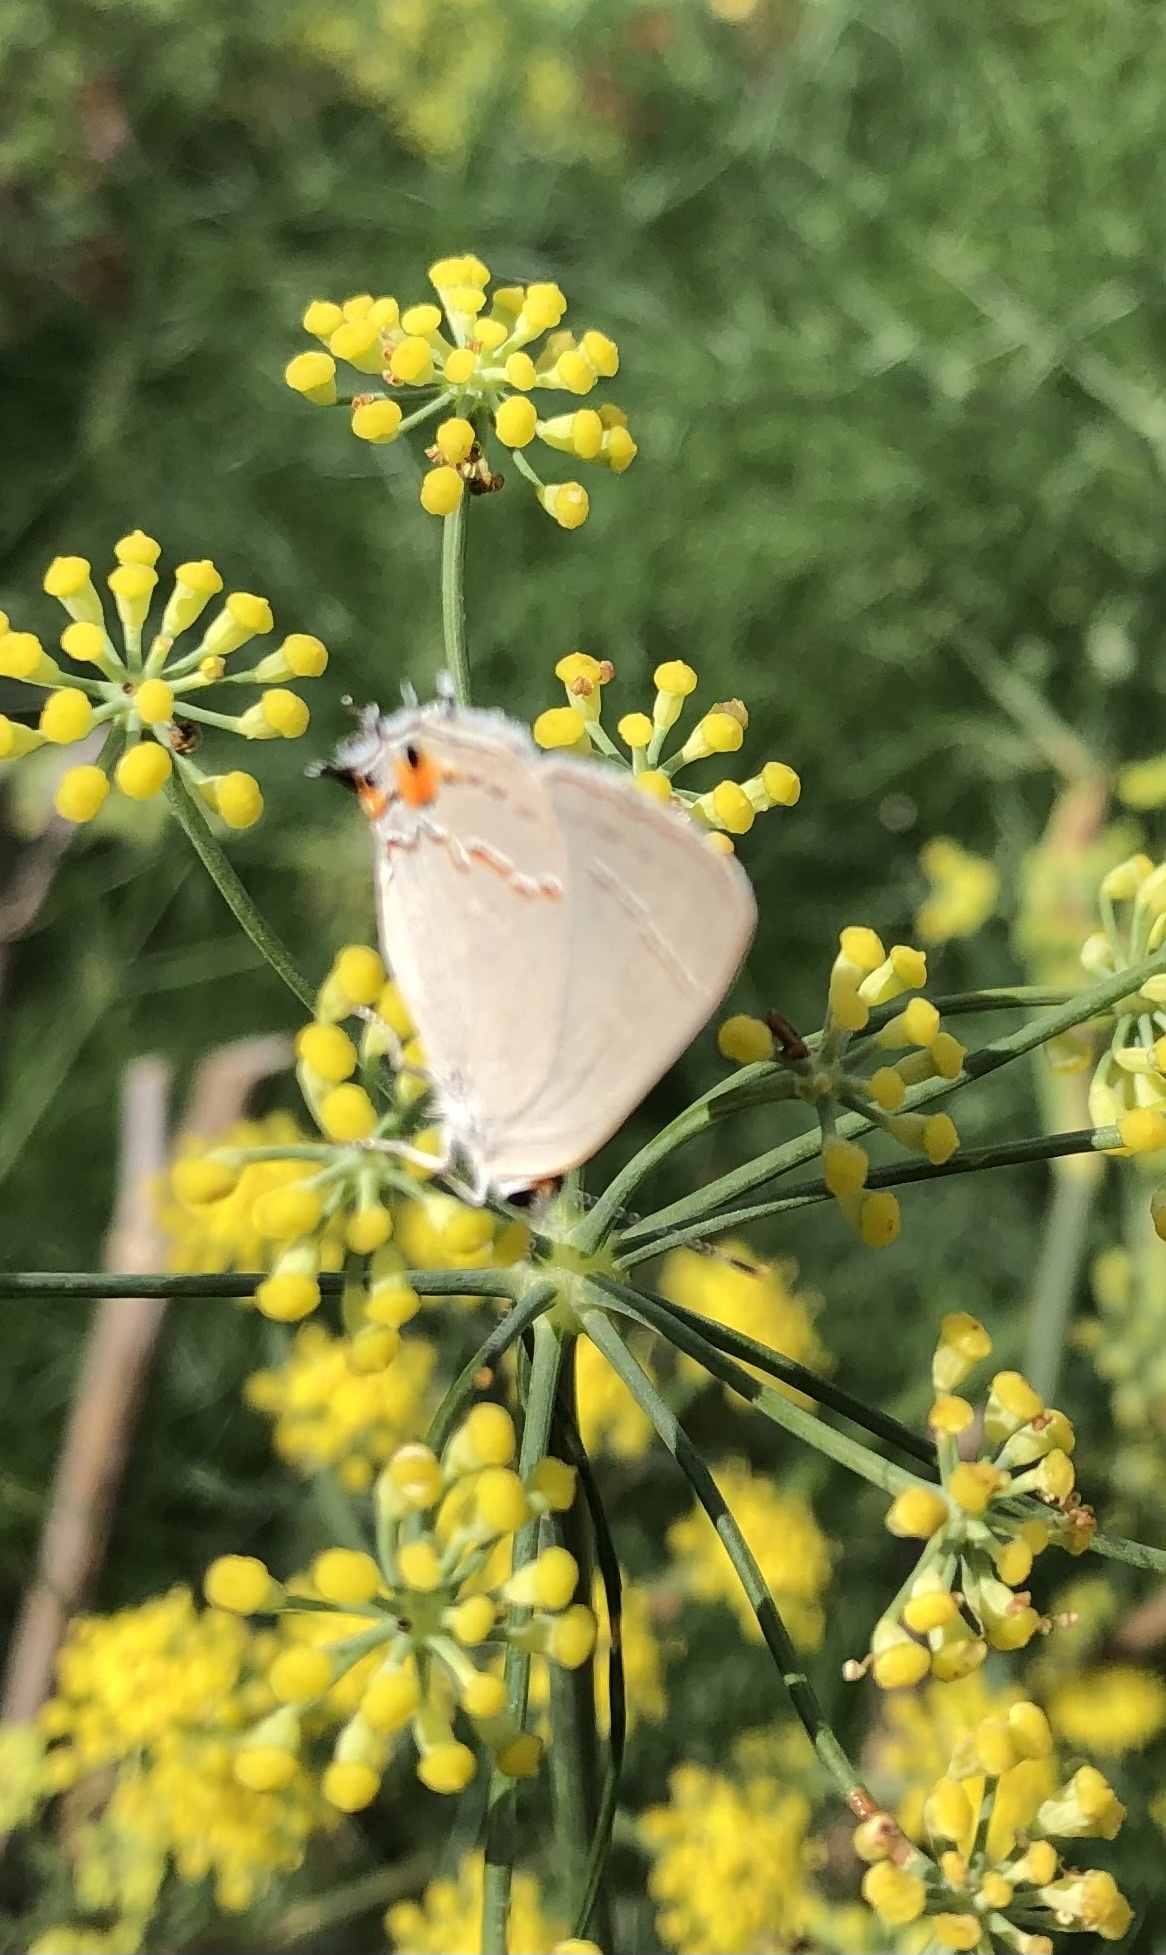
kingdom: Animalia
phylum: Arthropoda
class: Insecta
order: Lepidoptera
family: Lycaenidae
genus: Strymon
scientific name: Strymon melinus
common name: Gray hairstreak
